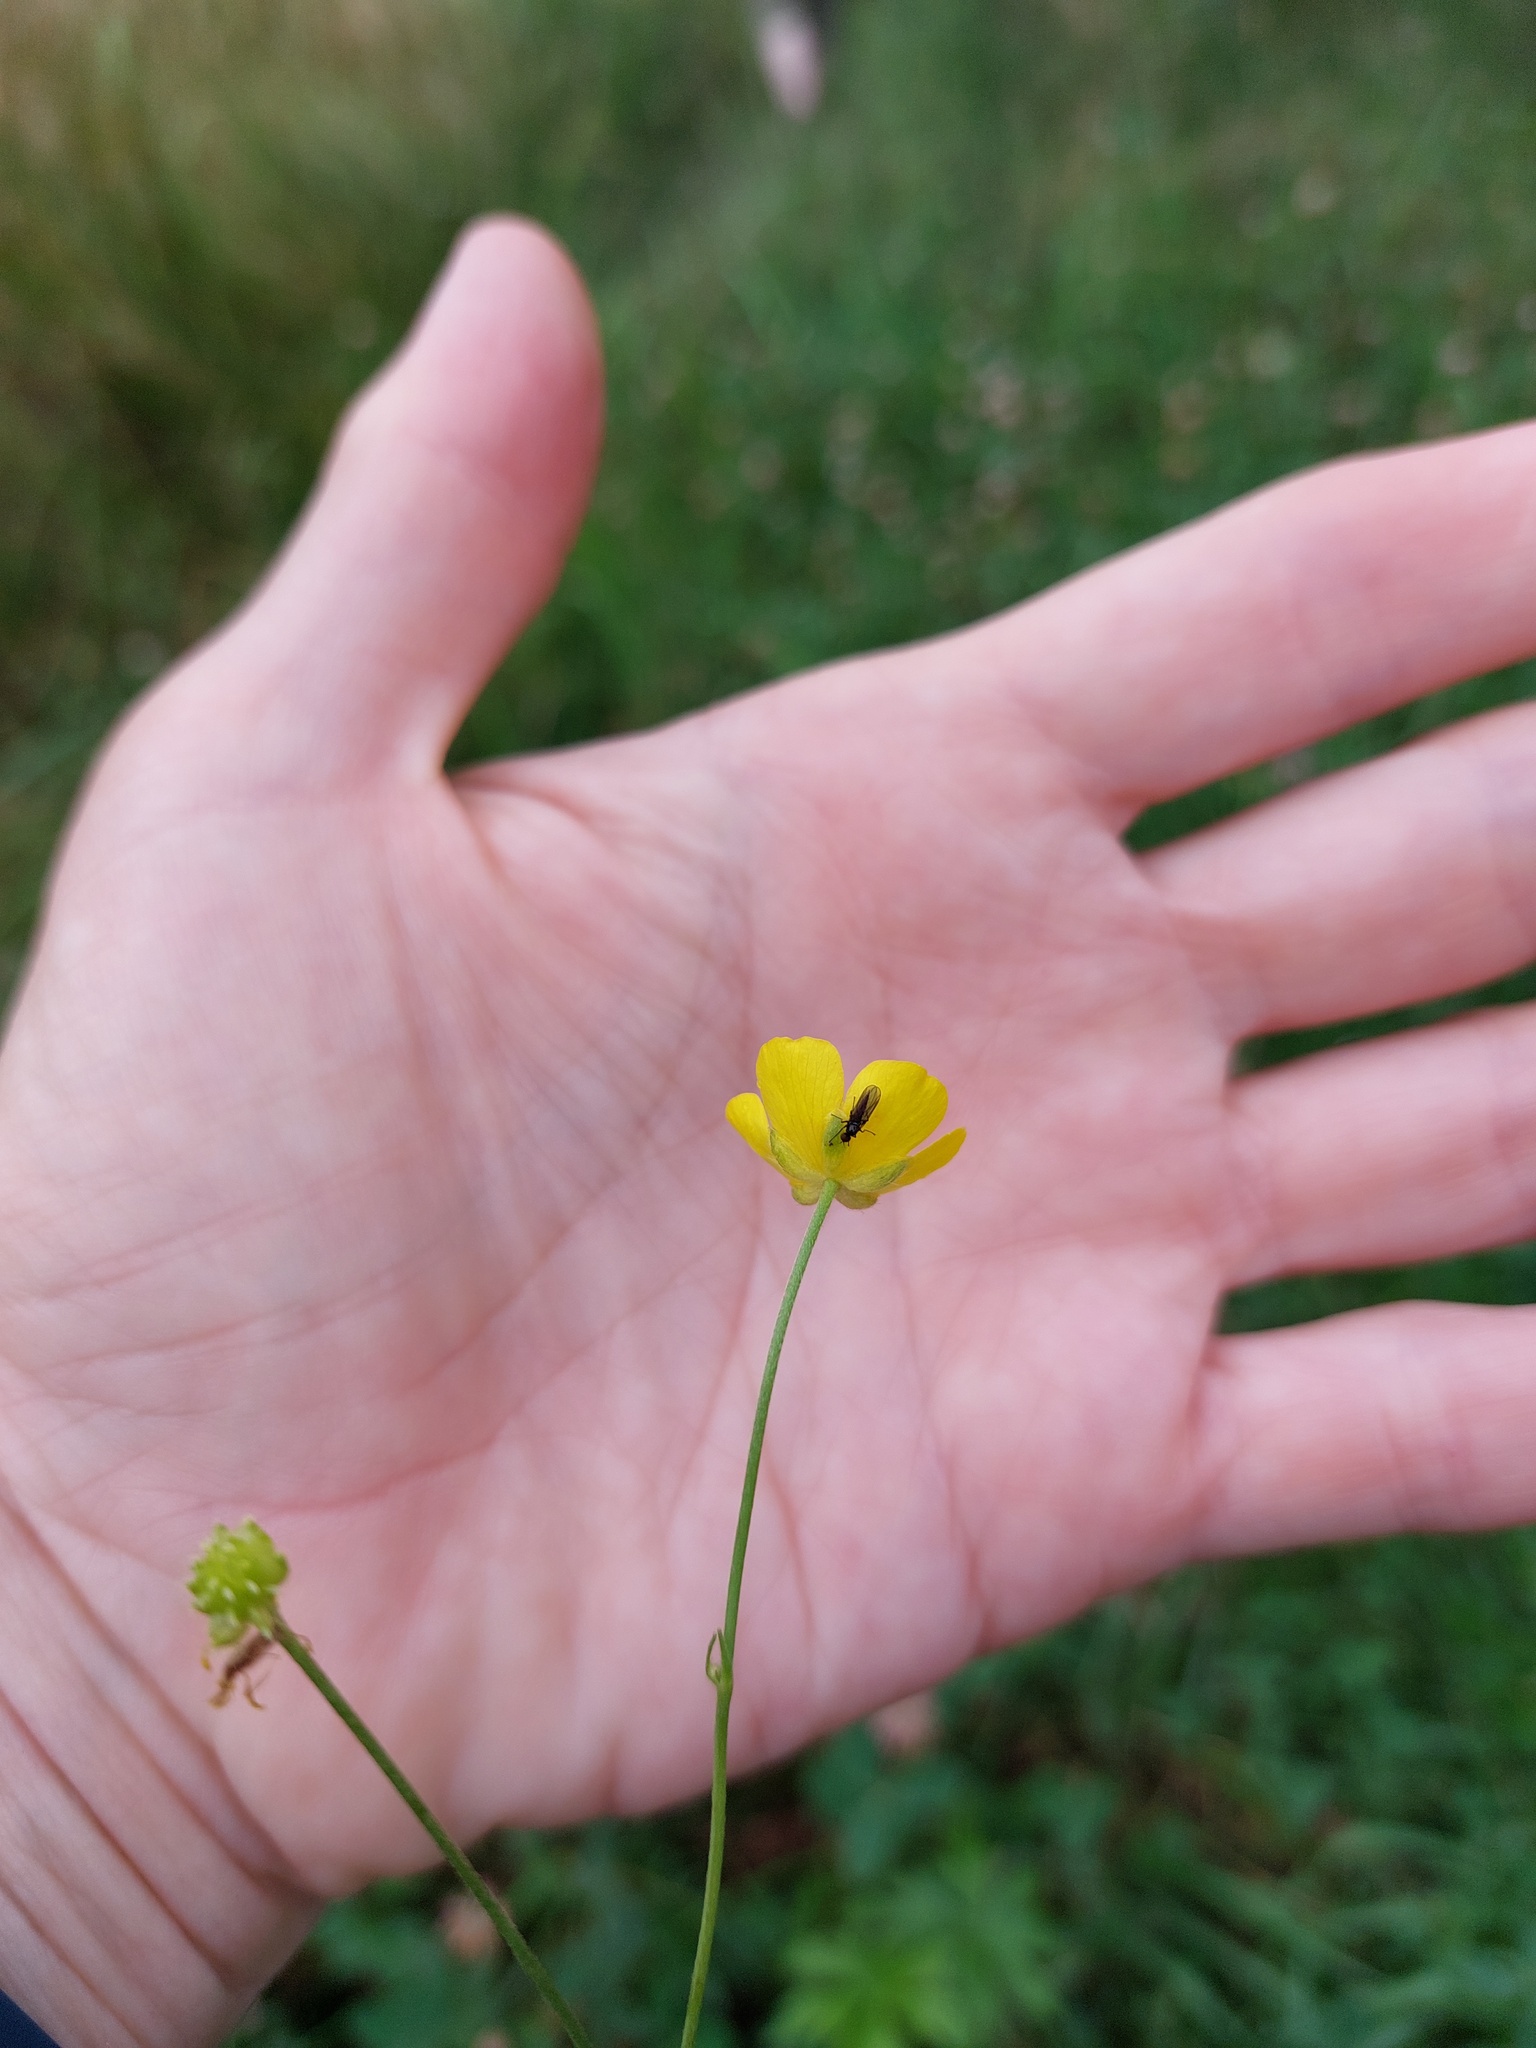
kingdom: Plantae
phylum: Tracheophyta
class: Magnoliopsida
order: Ranunculales
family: Ranunculaceae
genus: Ranunculus
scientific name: Ranunculus acris
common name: Meadow buttercup
